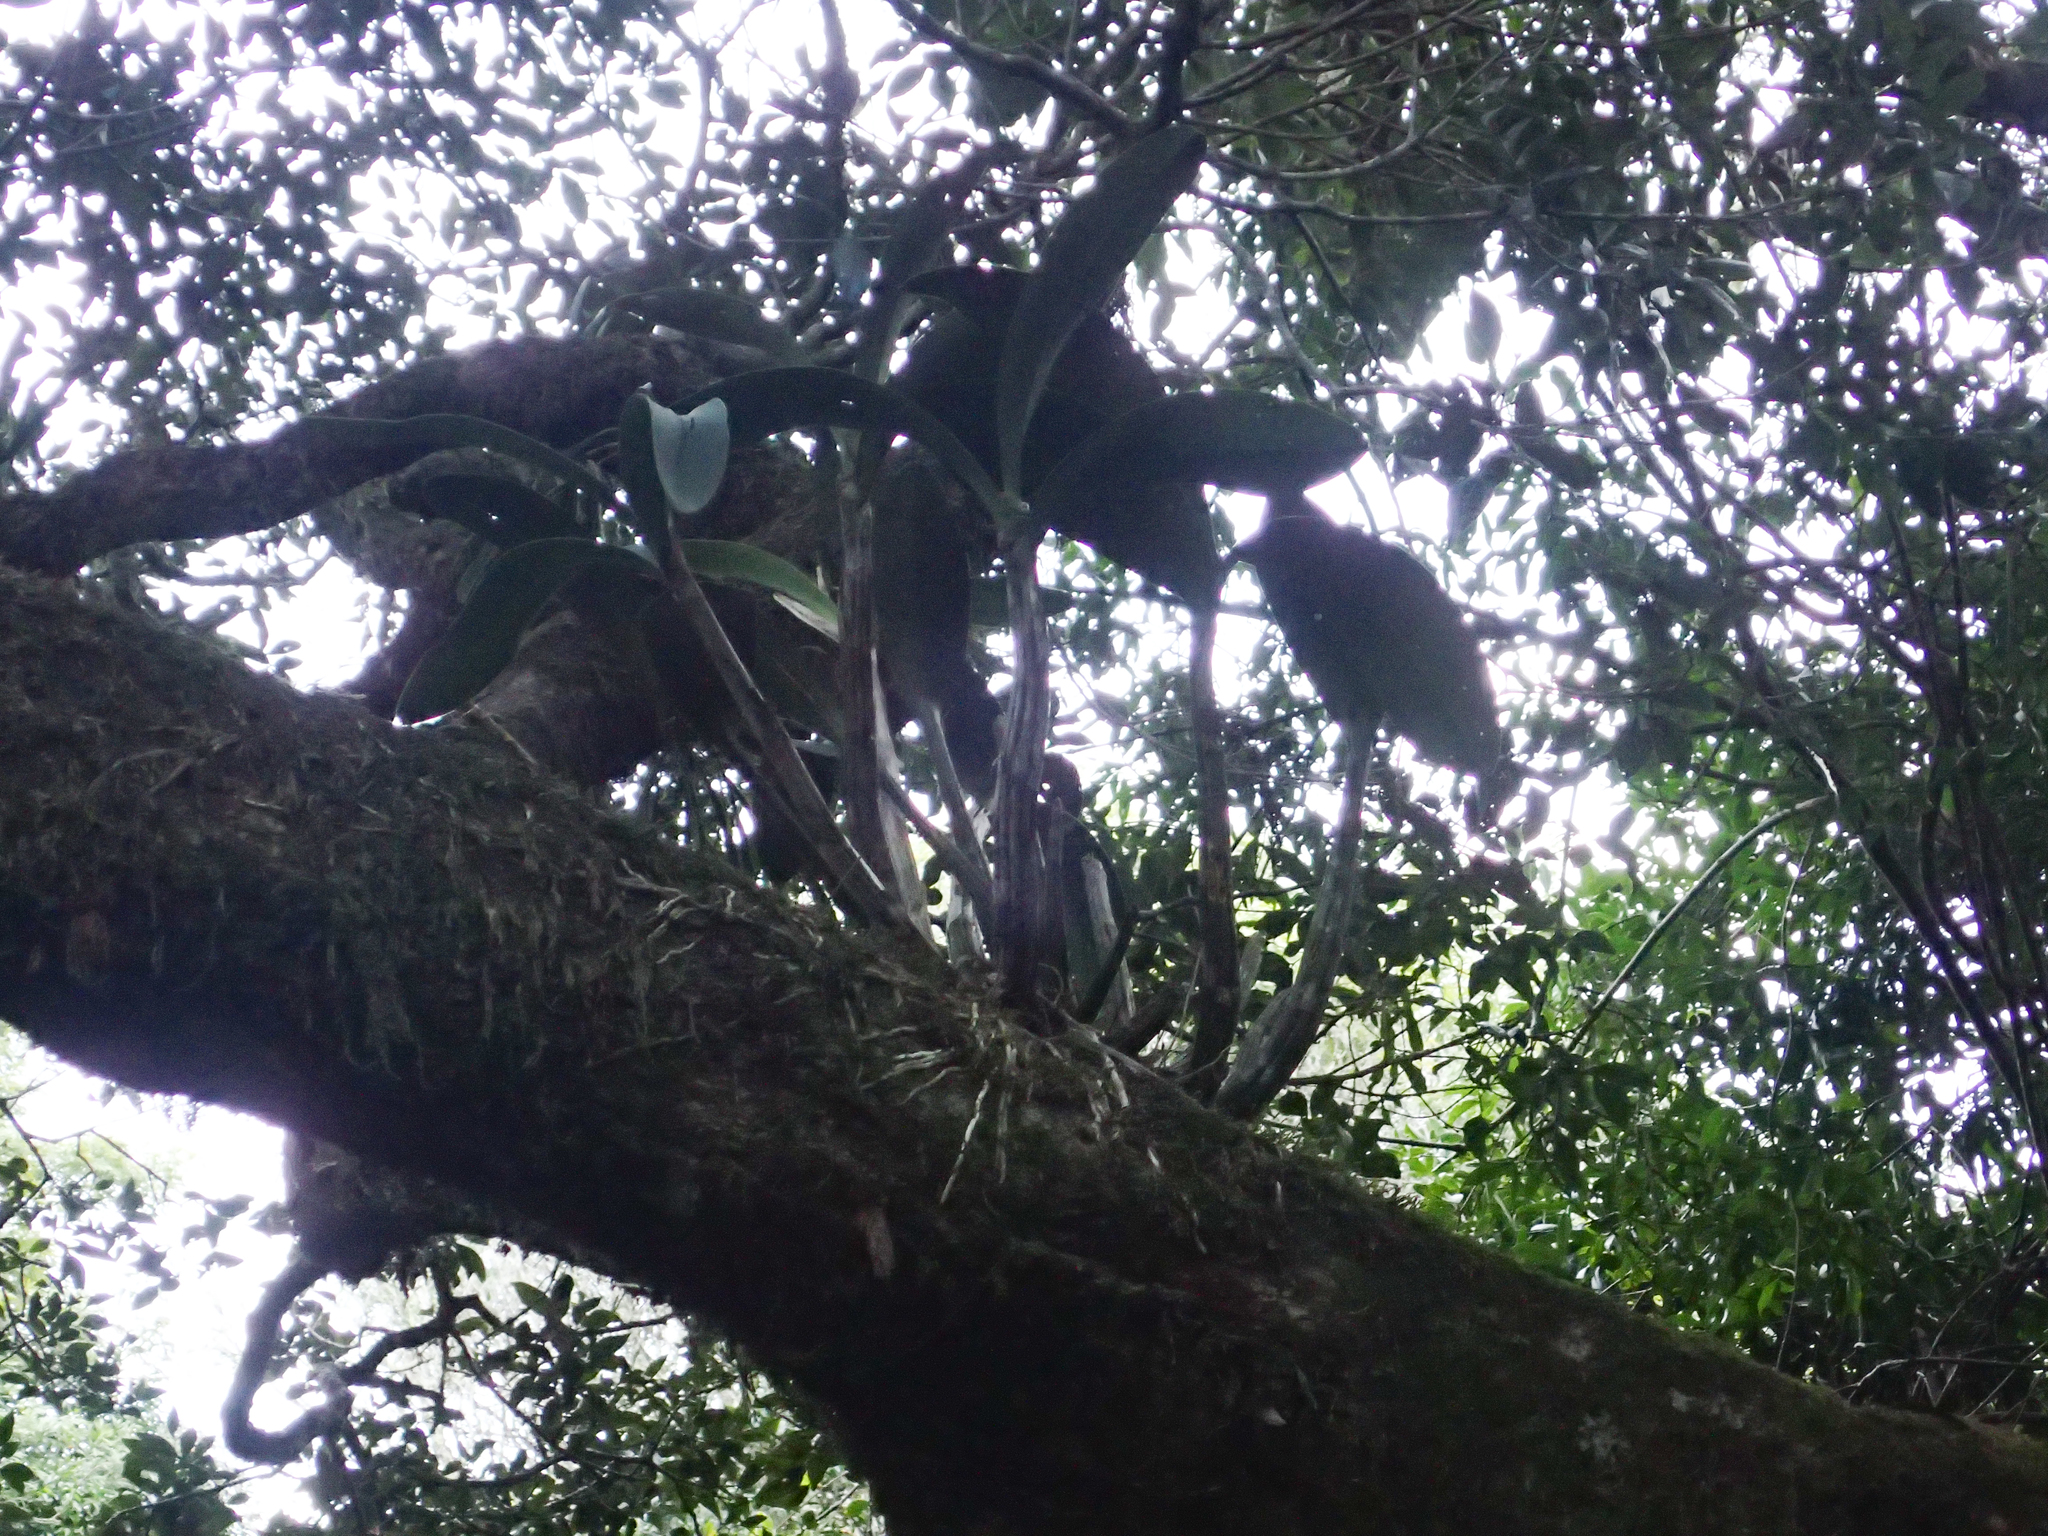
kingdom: Plantae
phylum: Tracheophyta
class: Liliopsida
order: Asparagales
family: Orchidaceae
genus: Dendrobium
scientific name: Dendrobium speciosum
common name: Rock-lily
